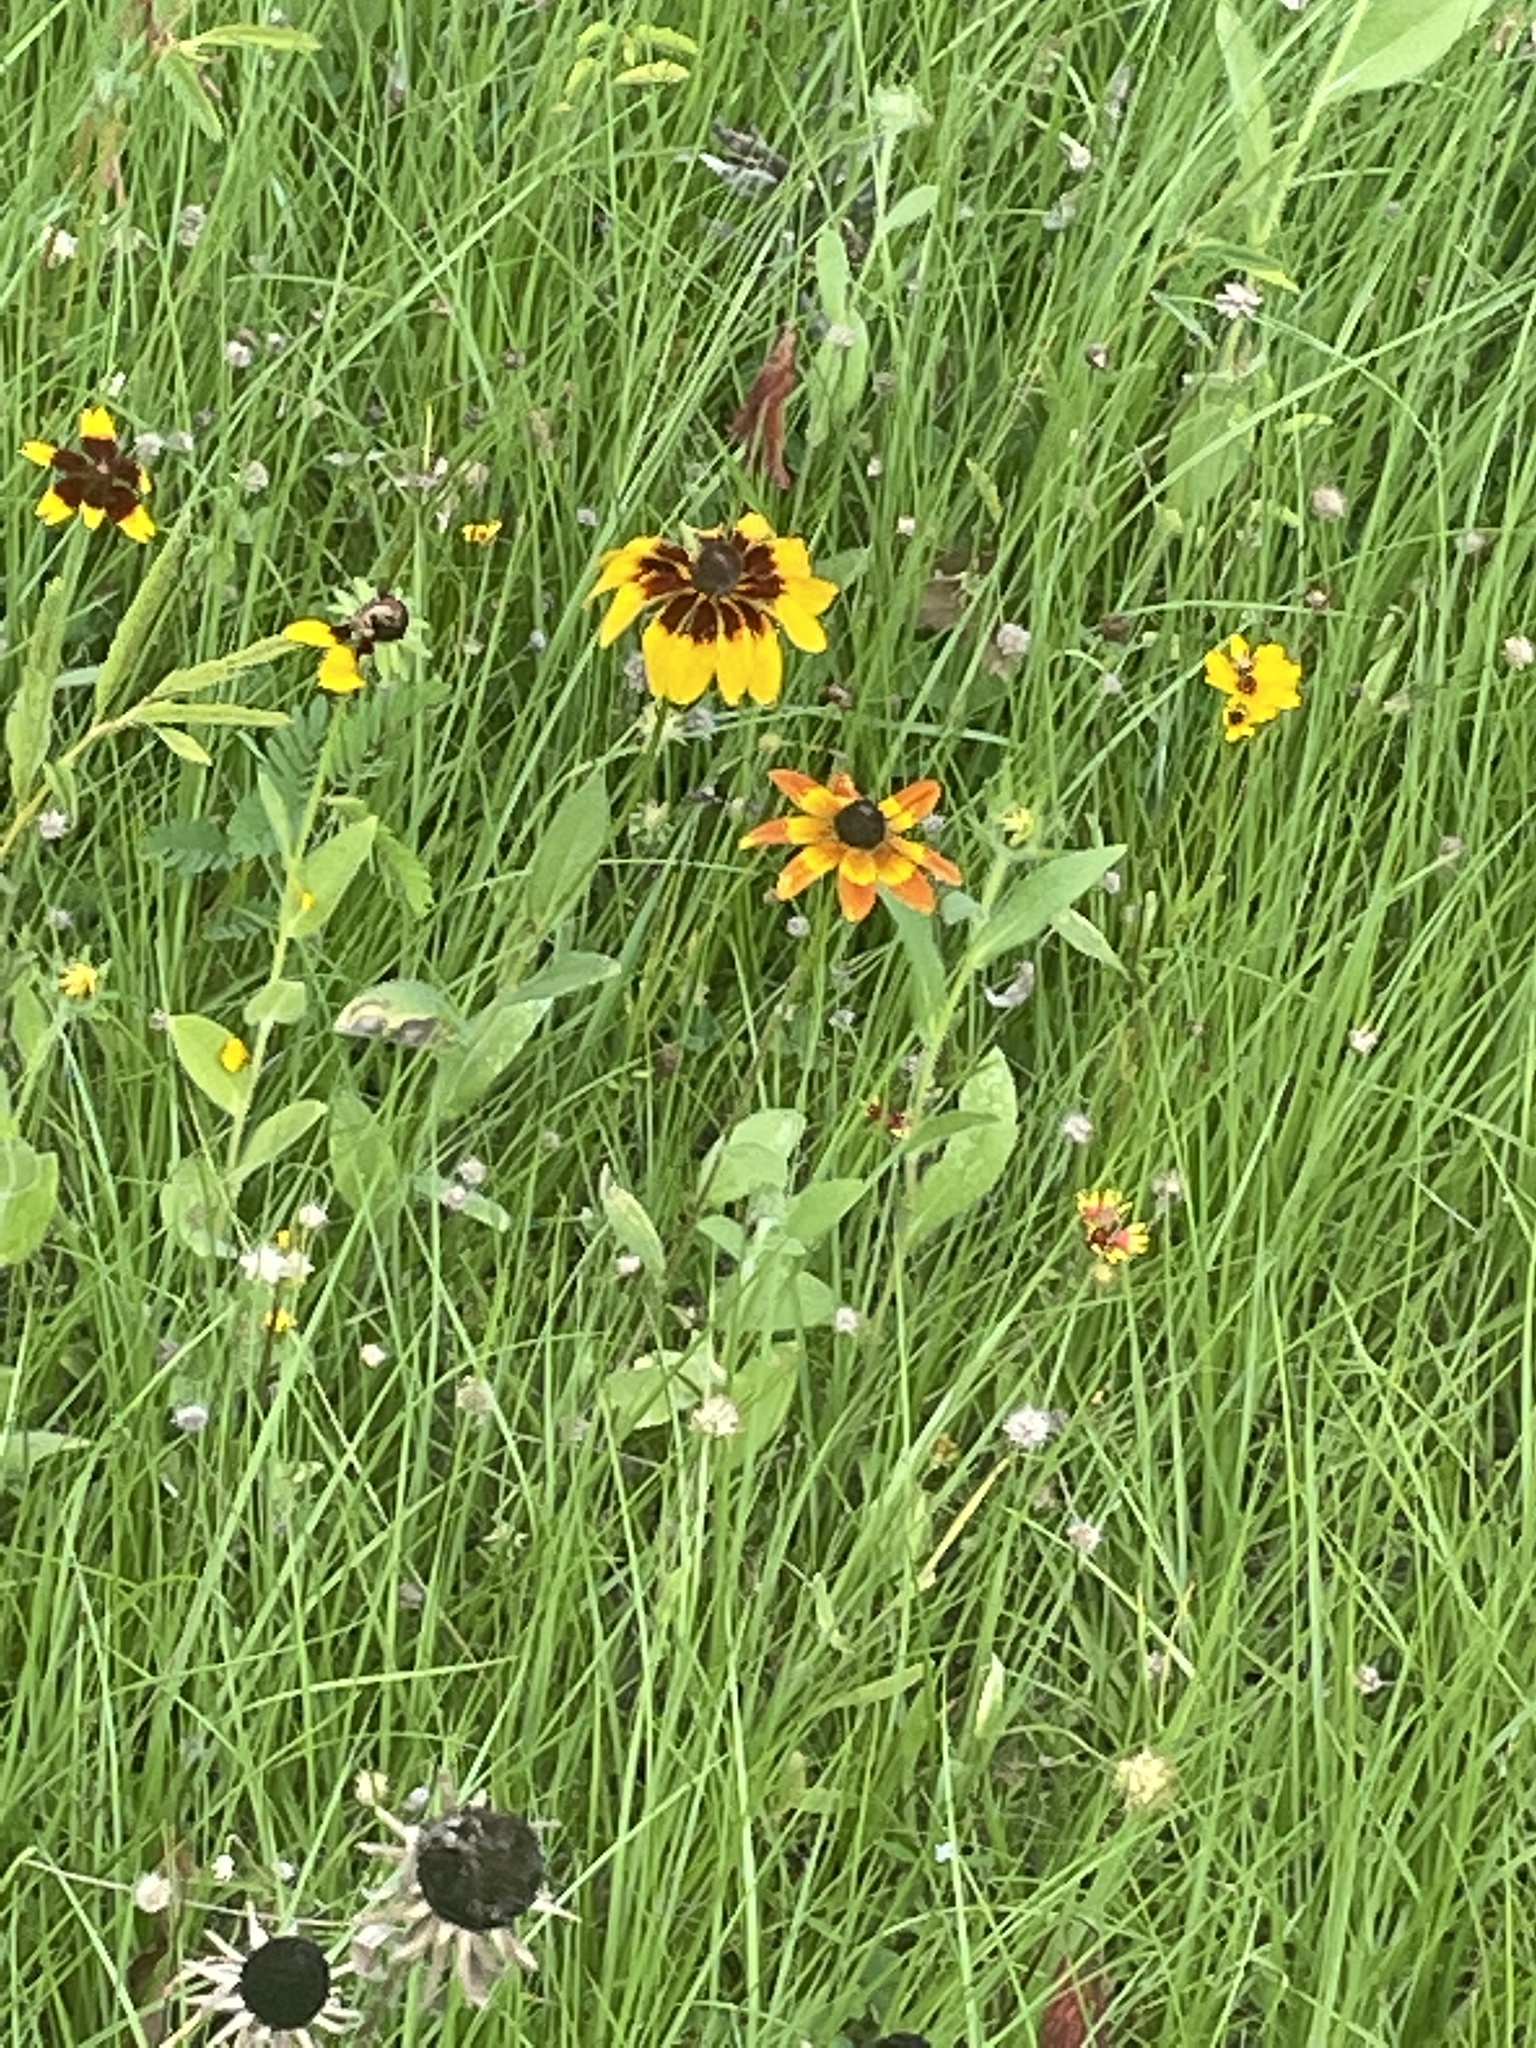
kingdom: Plantae
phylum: Tracheophyta
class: Magnoliopsida
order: Asterales
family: Asteraceae
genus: Rudbeckia
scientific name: Rudbeckia hirta
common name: Black-eyed-susan
